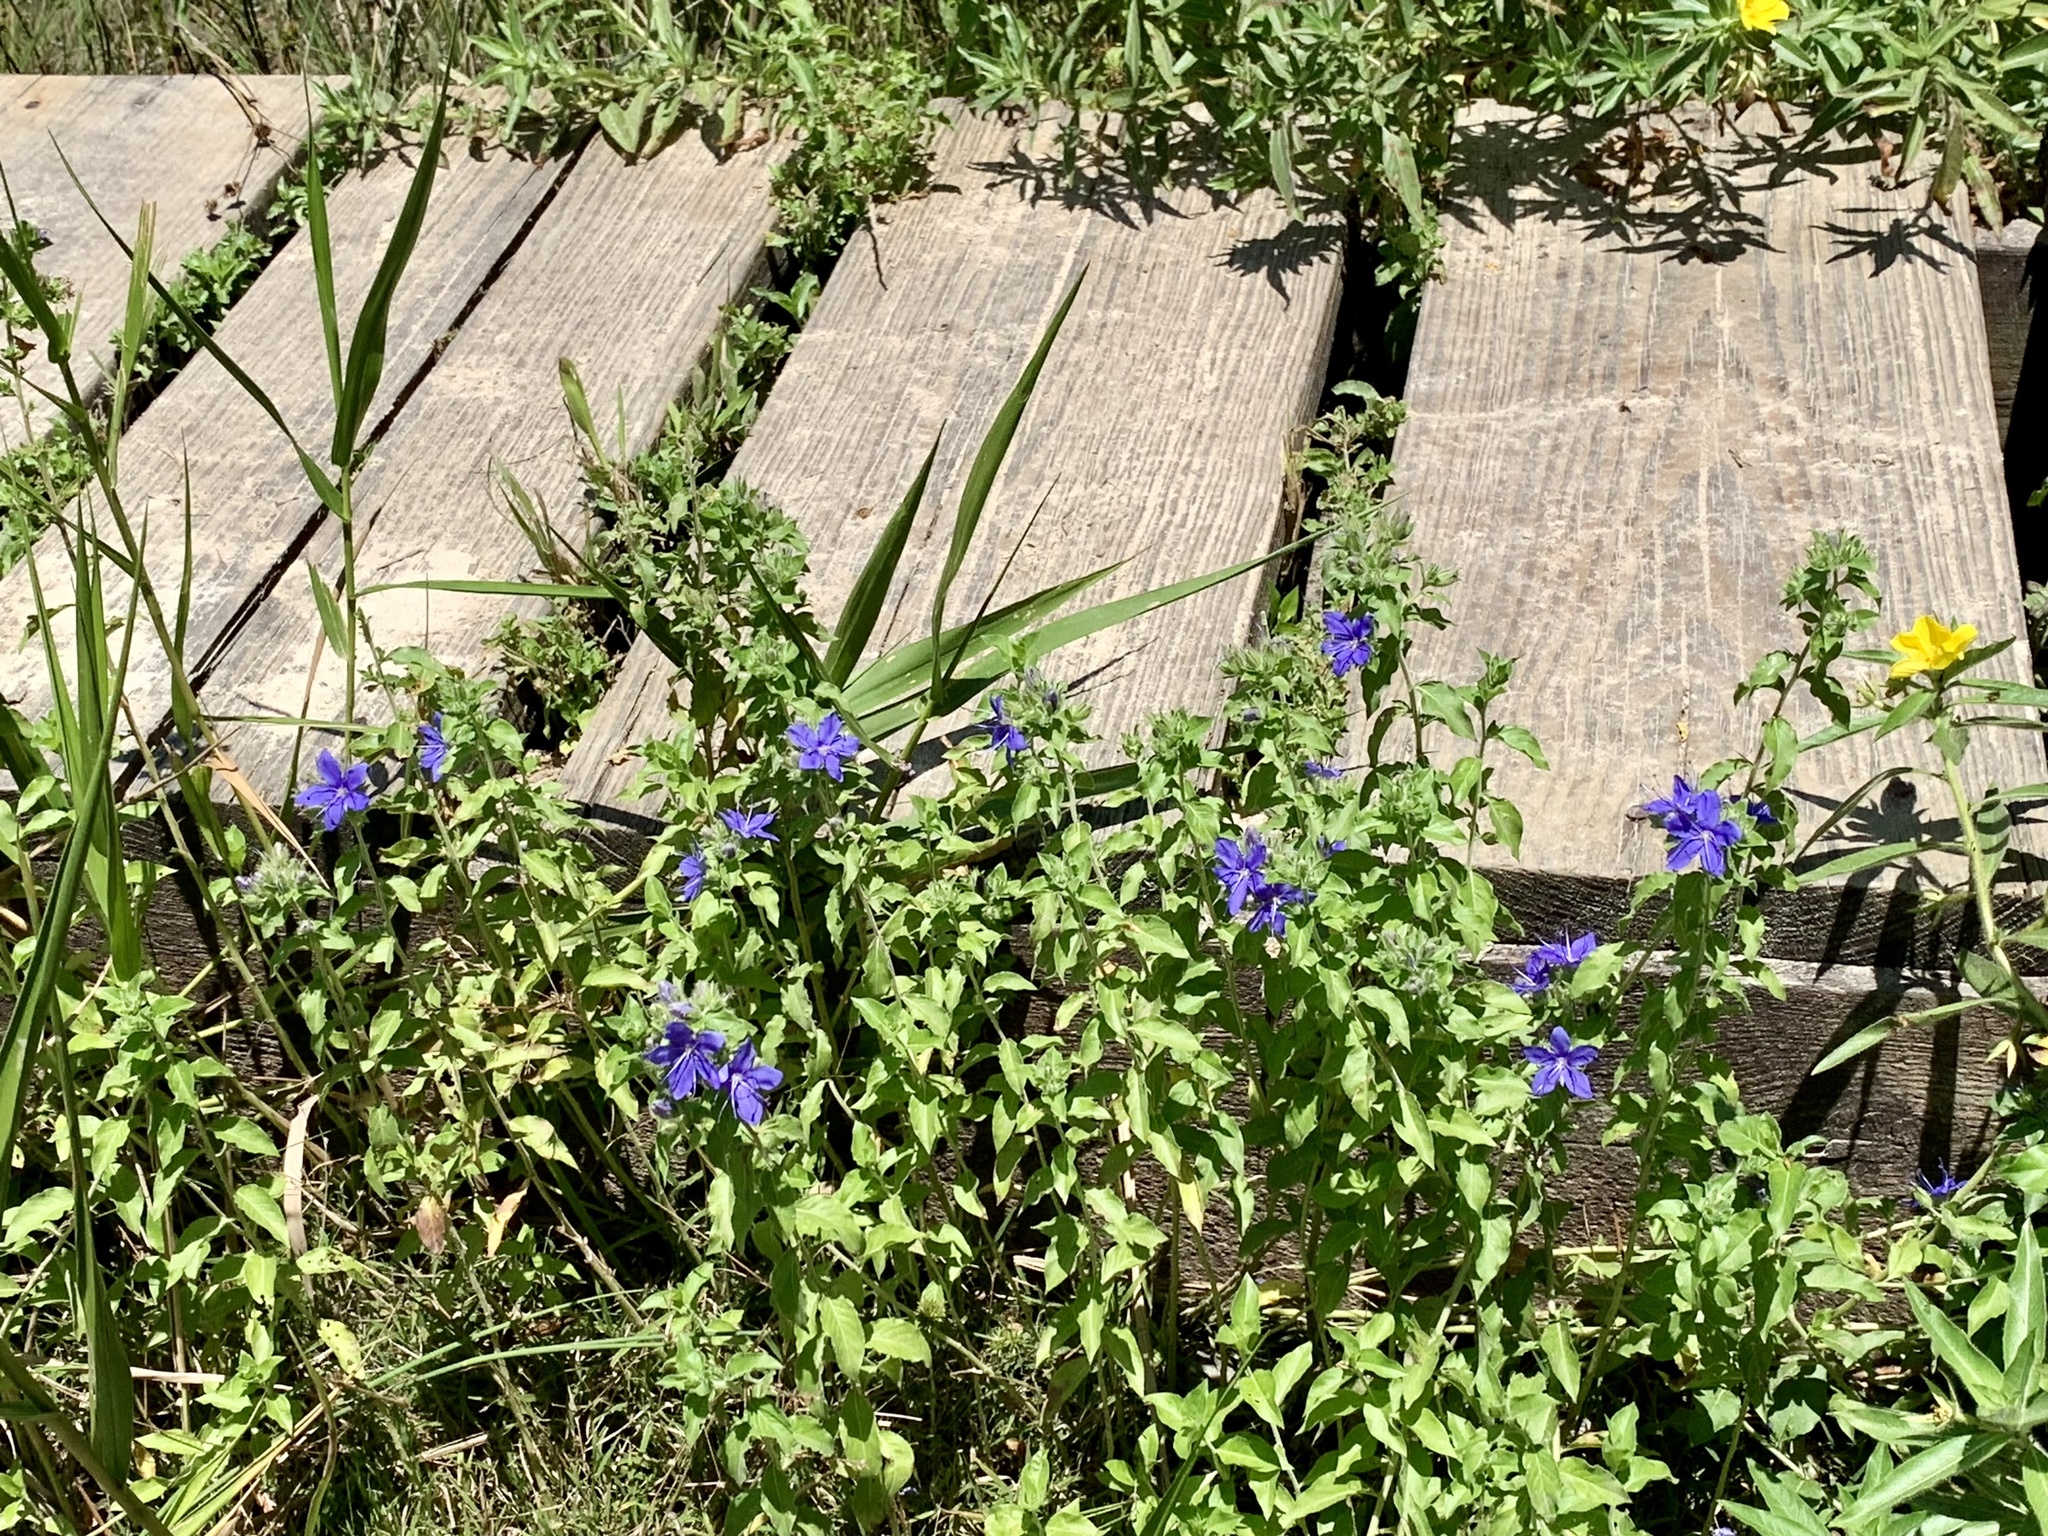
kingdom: Plantae
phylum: Tracheophyta
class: Magnoliopsida
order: Solanales
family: Hydroleaceae
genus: Hydrolea
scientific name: Hydrolea ovata
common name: Ovate false fiddleleaf
